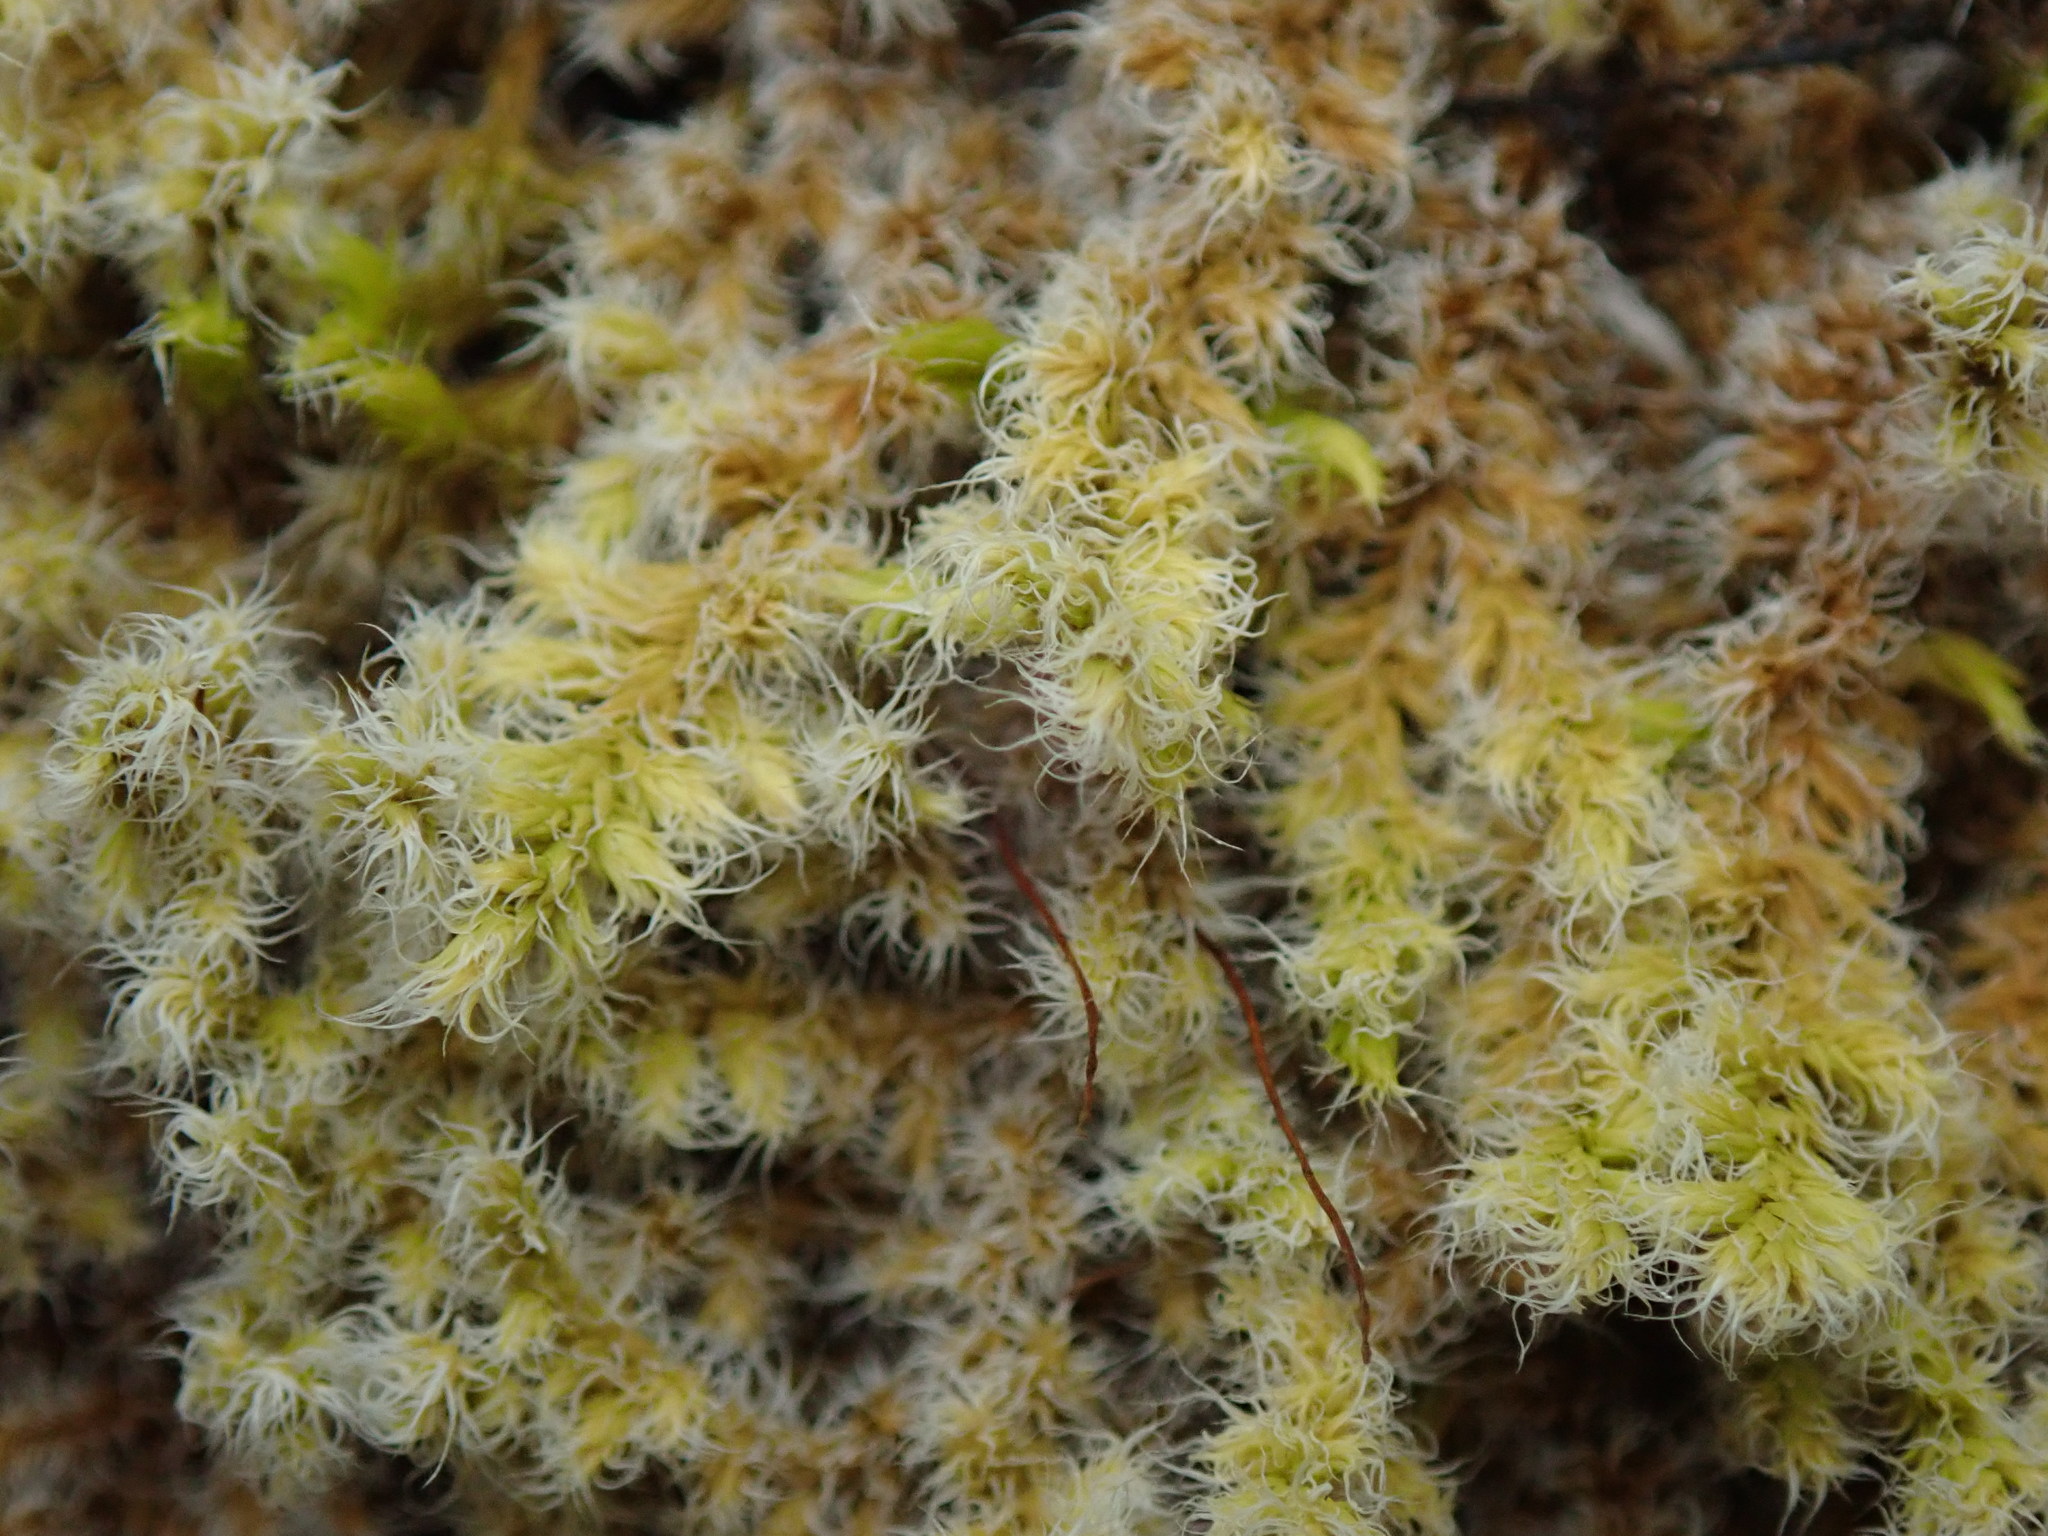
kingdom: Plantae
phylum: Bryophyta
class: Bryopsida
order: Grimmiales
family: Grimmiaceae
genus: Niphotrichum
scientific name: Niphotrichum elongatum
